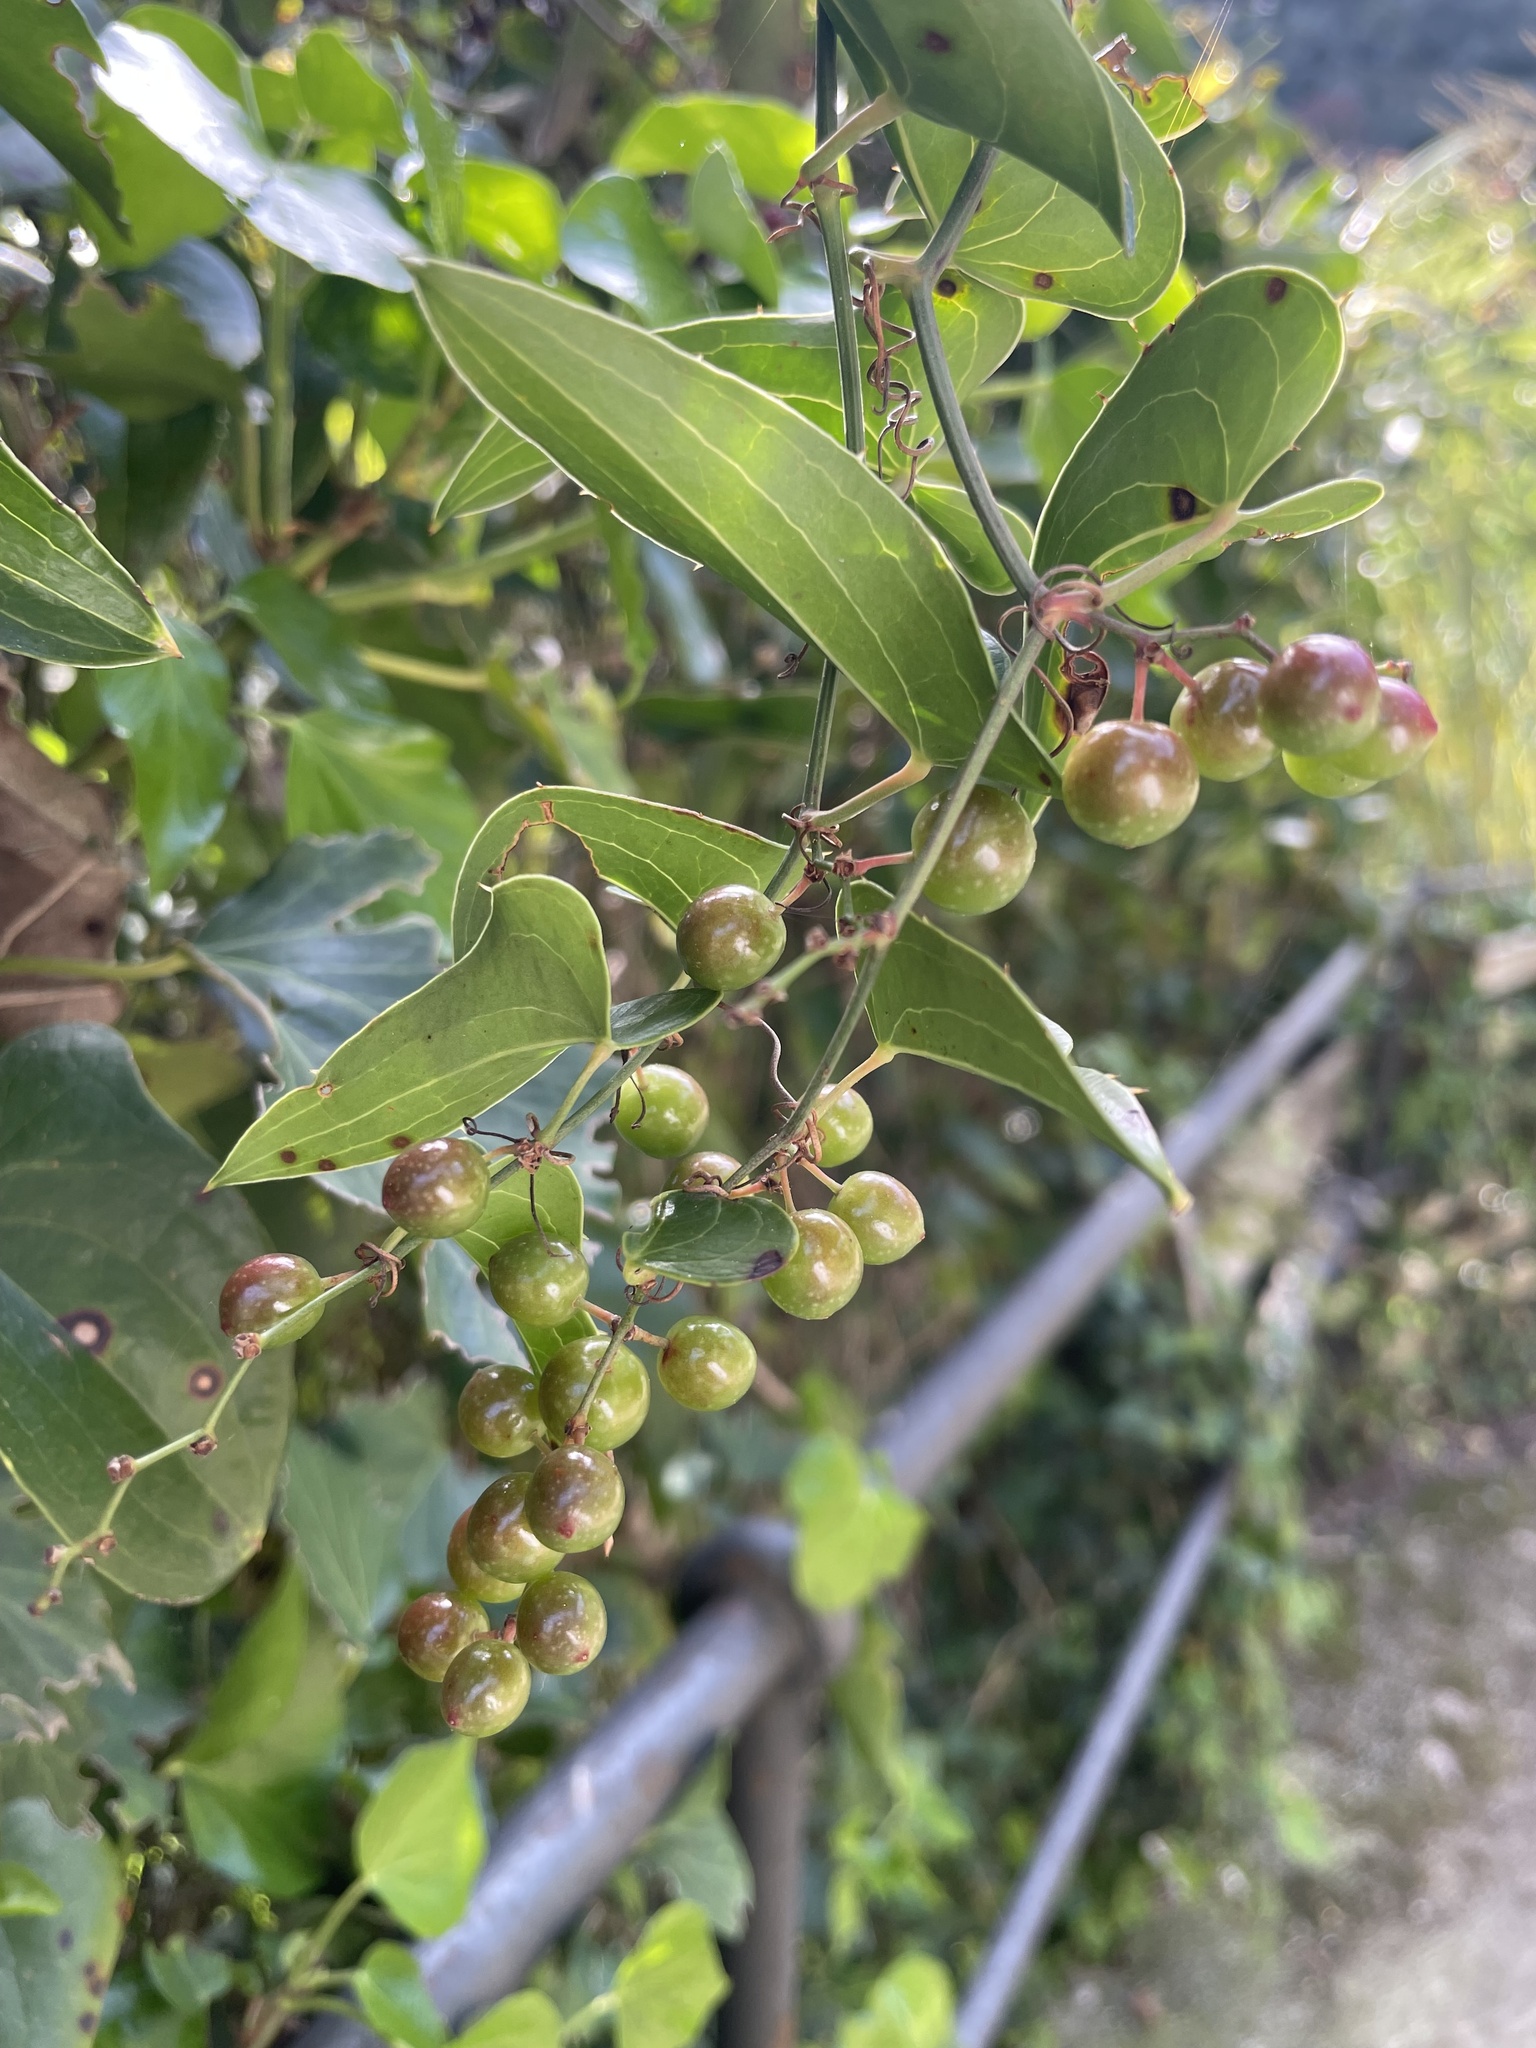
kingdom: Plantae
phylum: Tracheophyta
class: Liliopsida
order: Liliales
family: Smilacaceae
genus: Smilax
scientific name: Smilax aspera
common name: Common smilax
